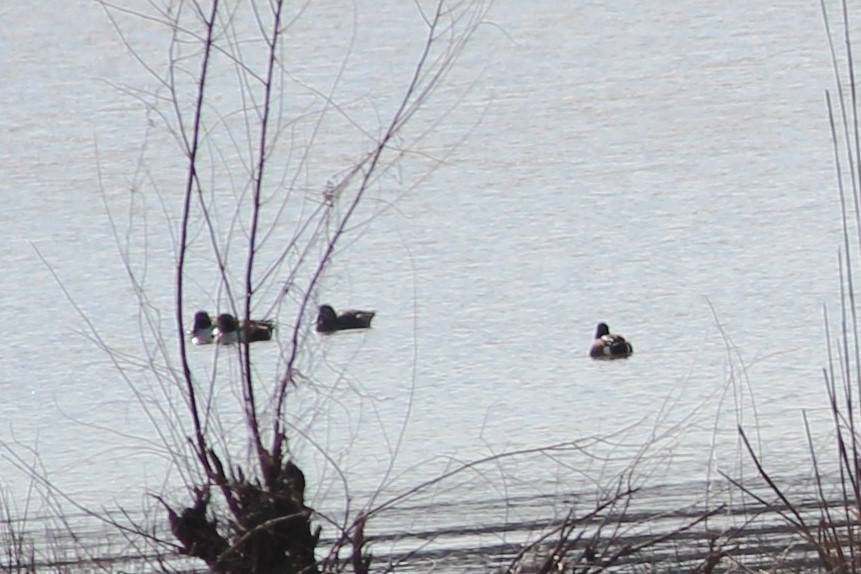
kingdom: Animalia
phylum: Chordata
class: Aves
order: Anseriformes
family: Anatidae
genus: Spatula
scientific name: Spatula clypeata
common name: Northern shoveler
